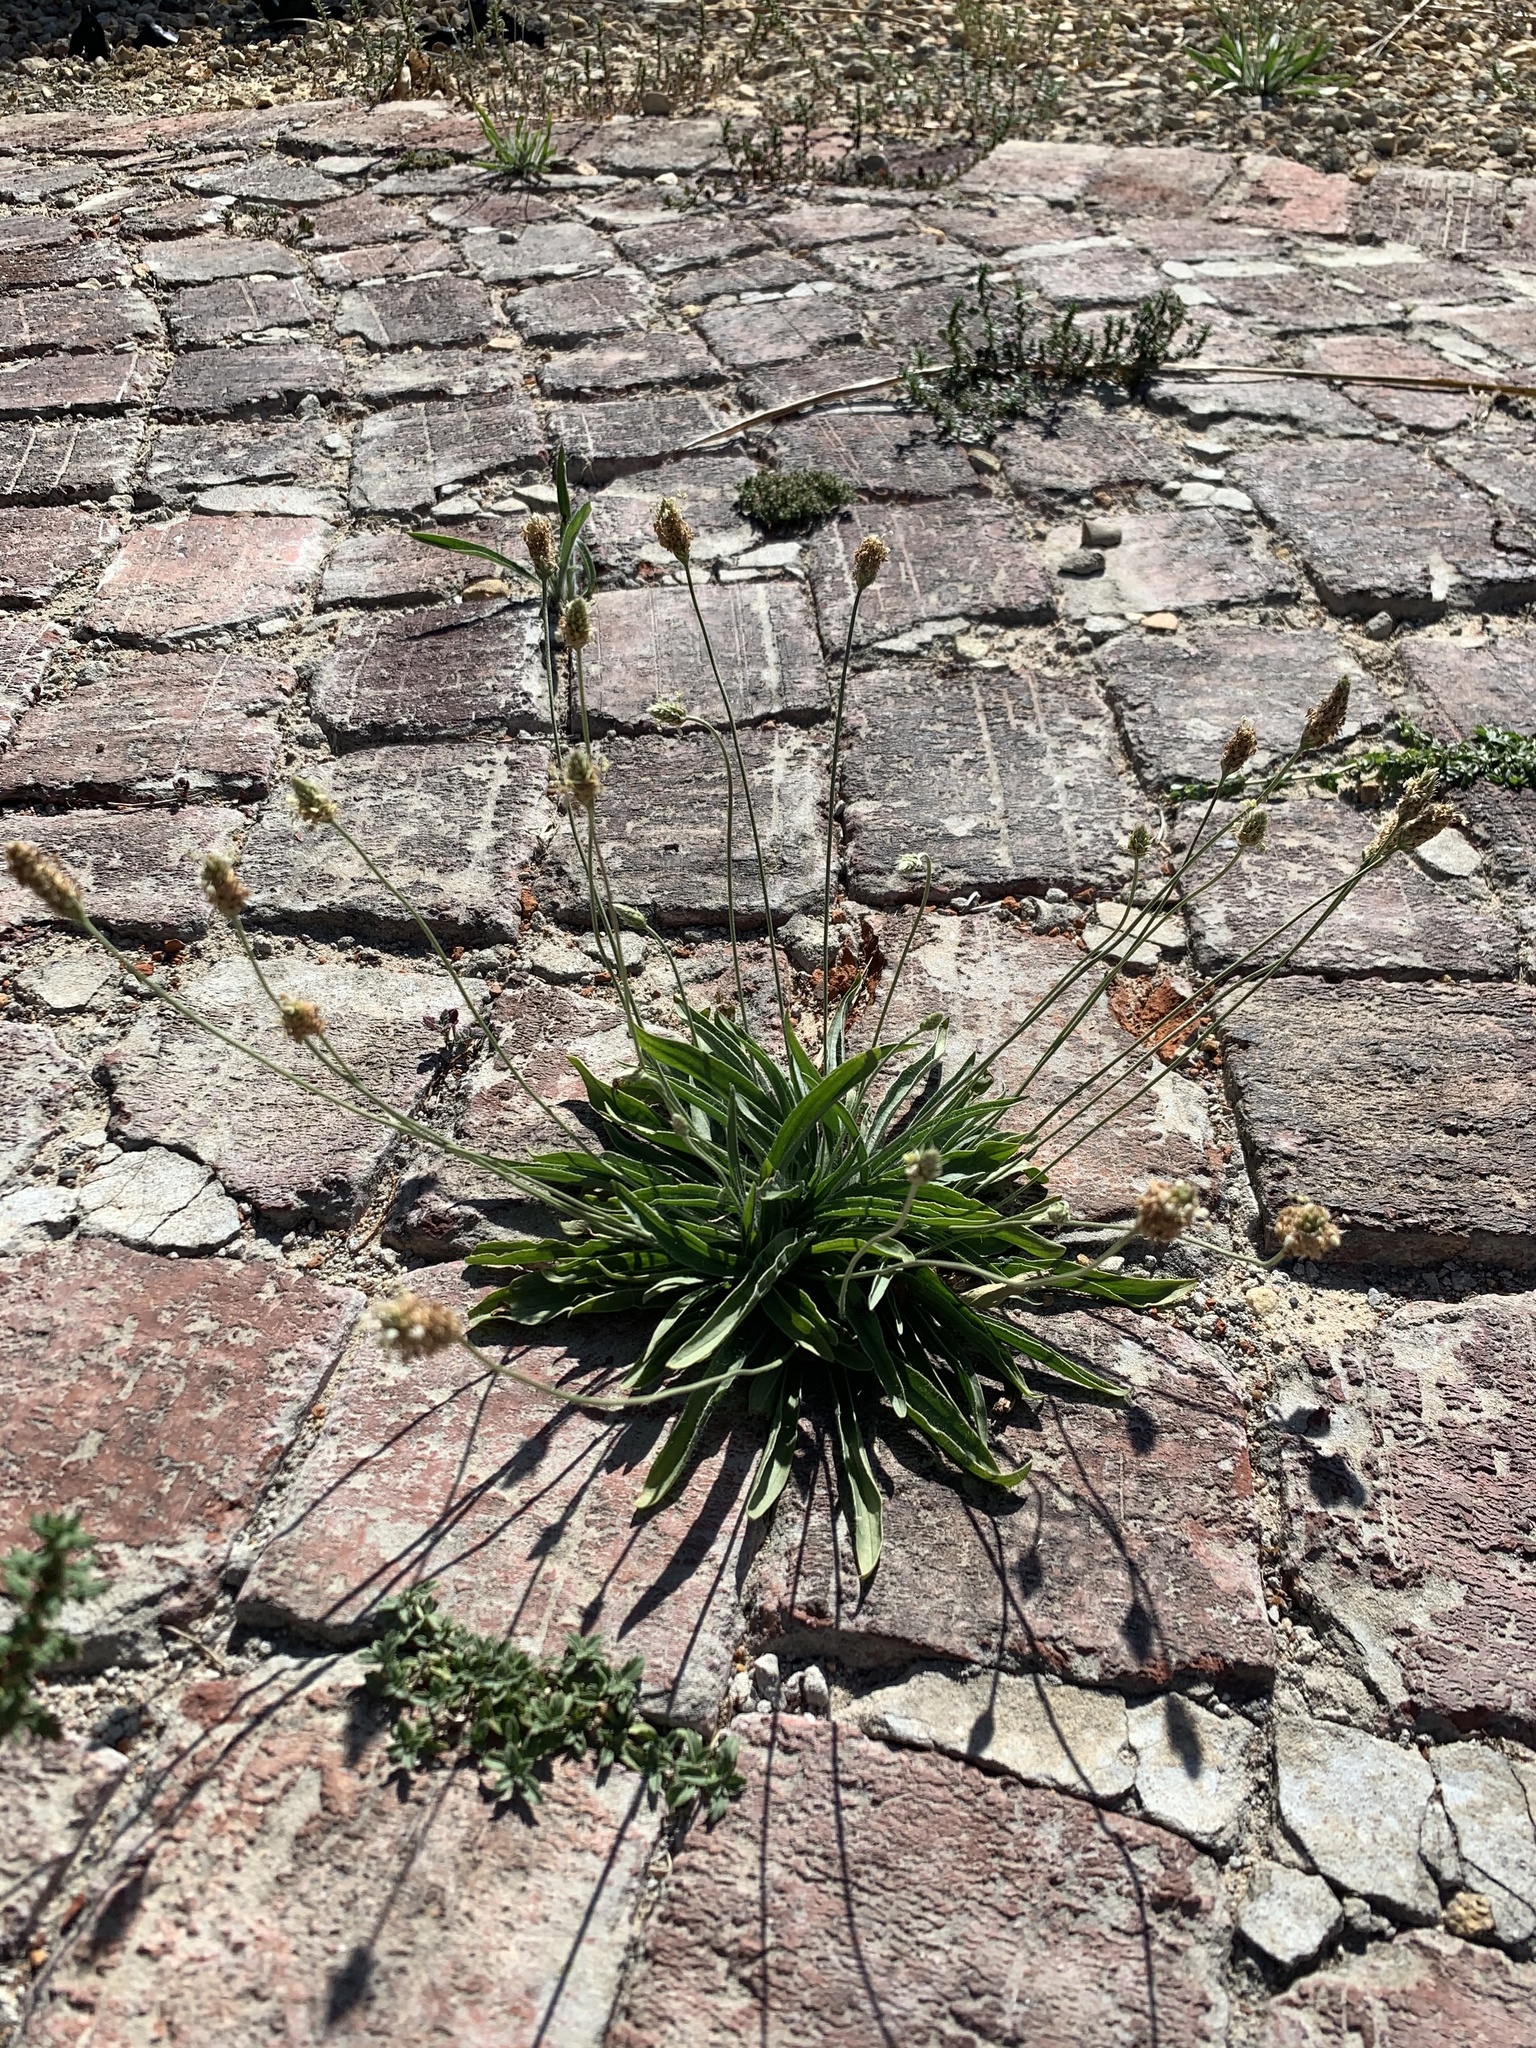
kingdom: Plantae
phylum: Tracheophyta
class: Magnoliopsida
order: Lamiales
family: Plantaginaceae
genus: Plantago
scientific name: Plantago lanceolata
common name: Ribwort plantain
